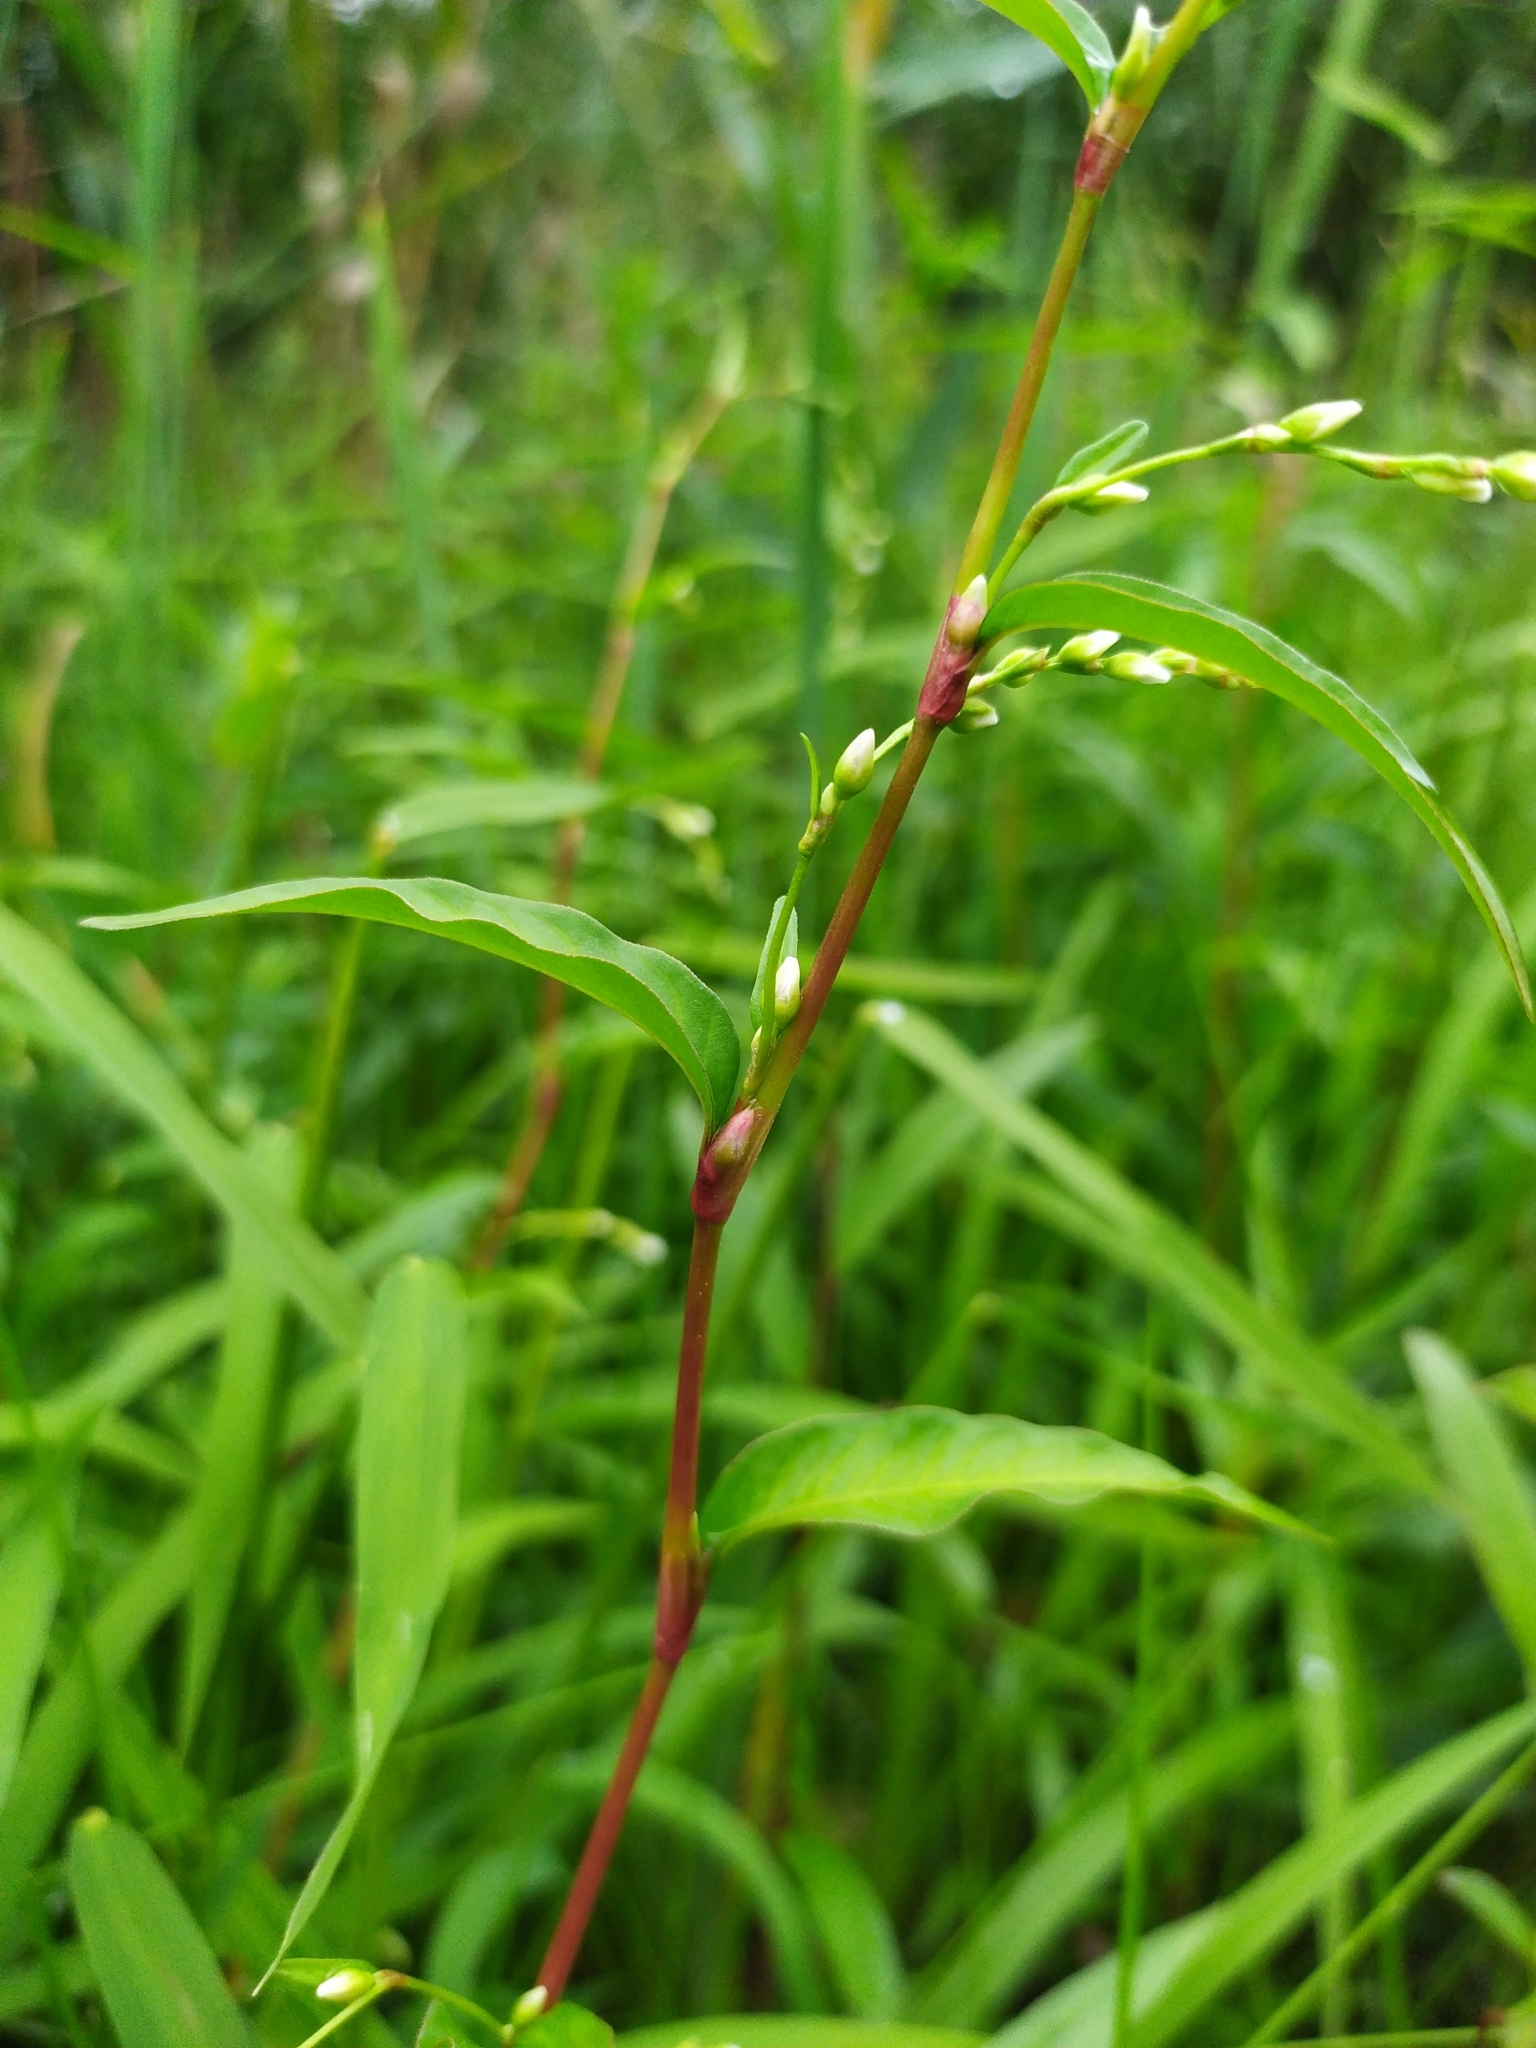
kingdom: Plantae
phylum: Tracheophyta
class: Magnoliopsida
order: Caryophyllales
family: Polygonaceae
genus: Persicaria
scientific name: Persicaria hydropiper
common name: Water-pepper
